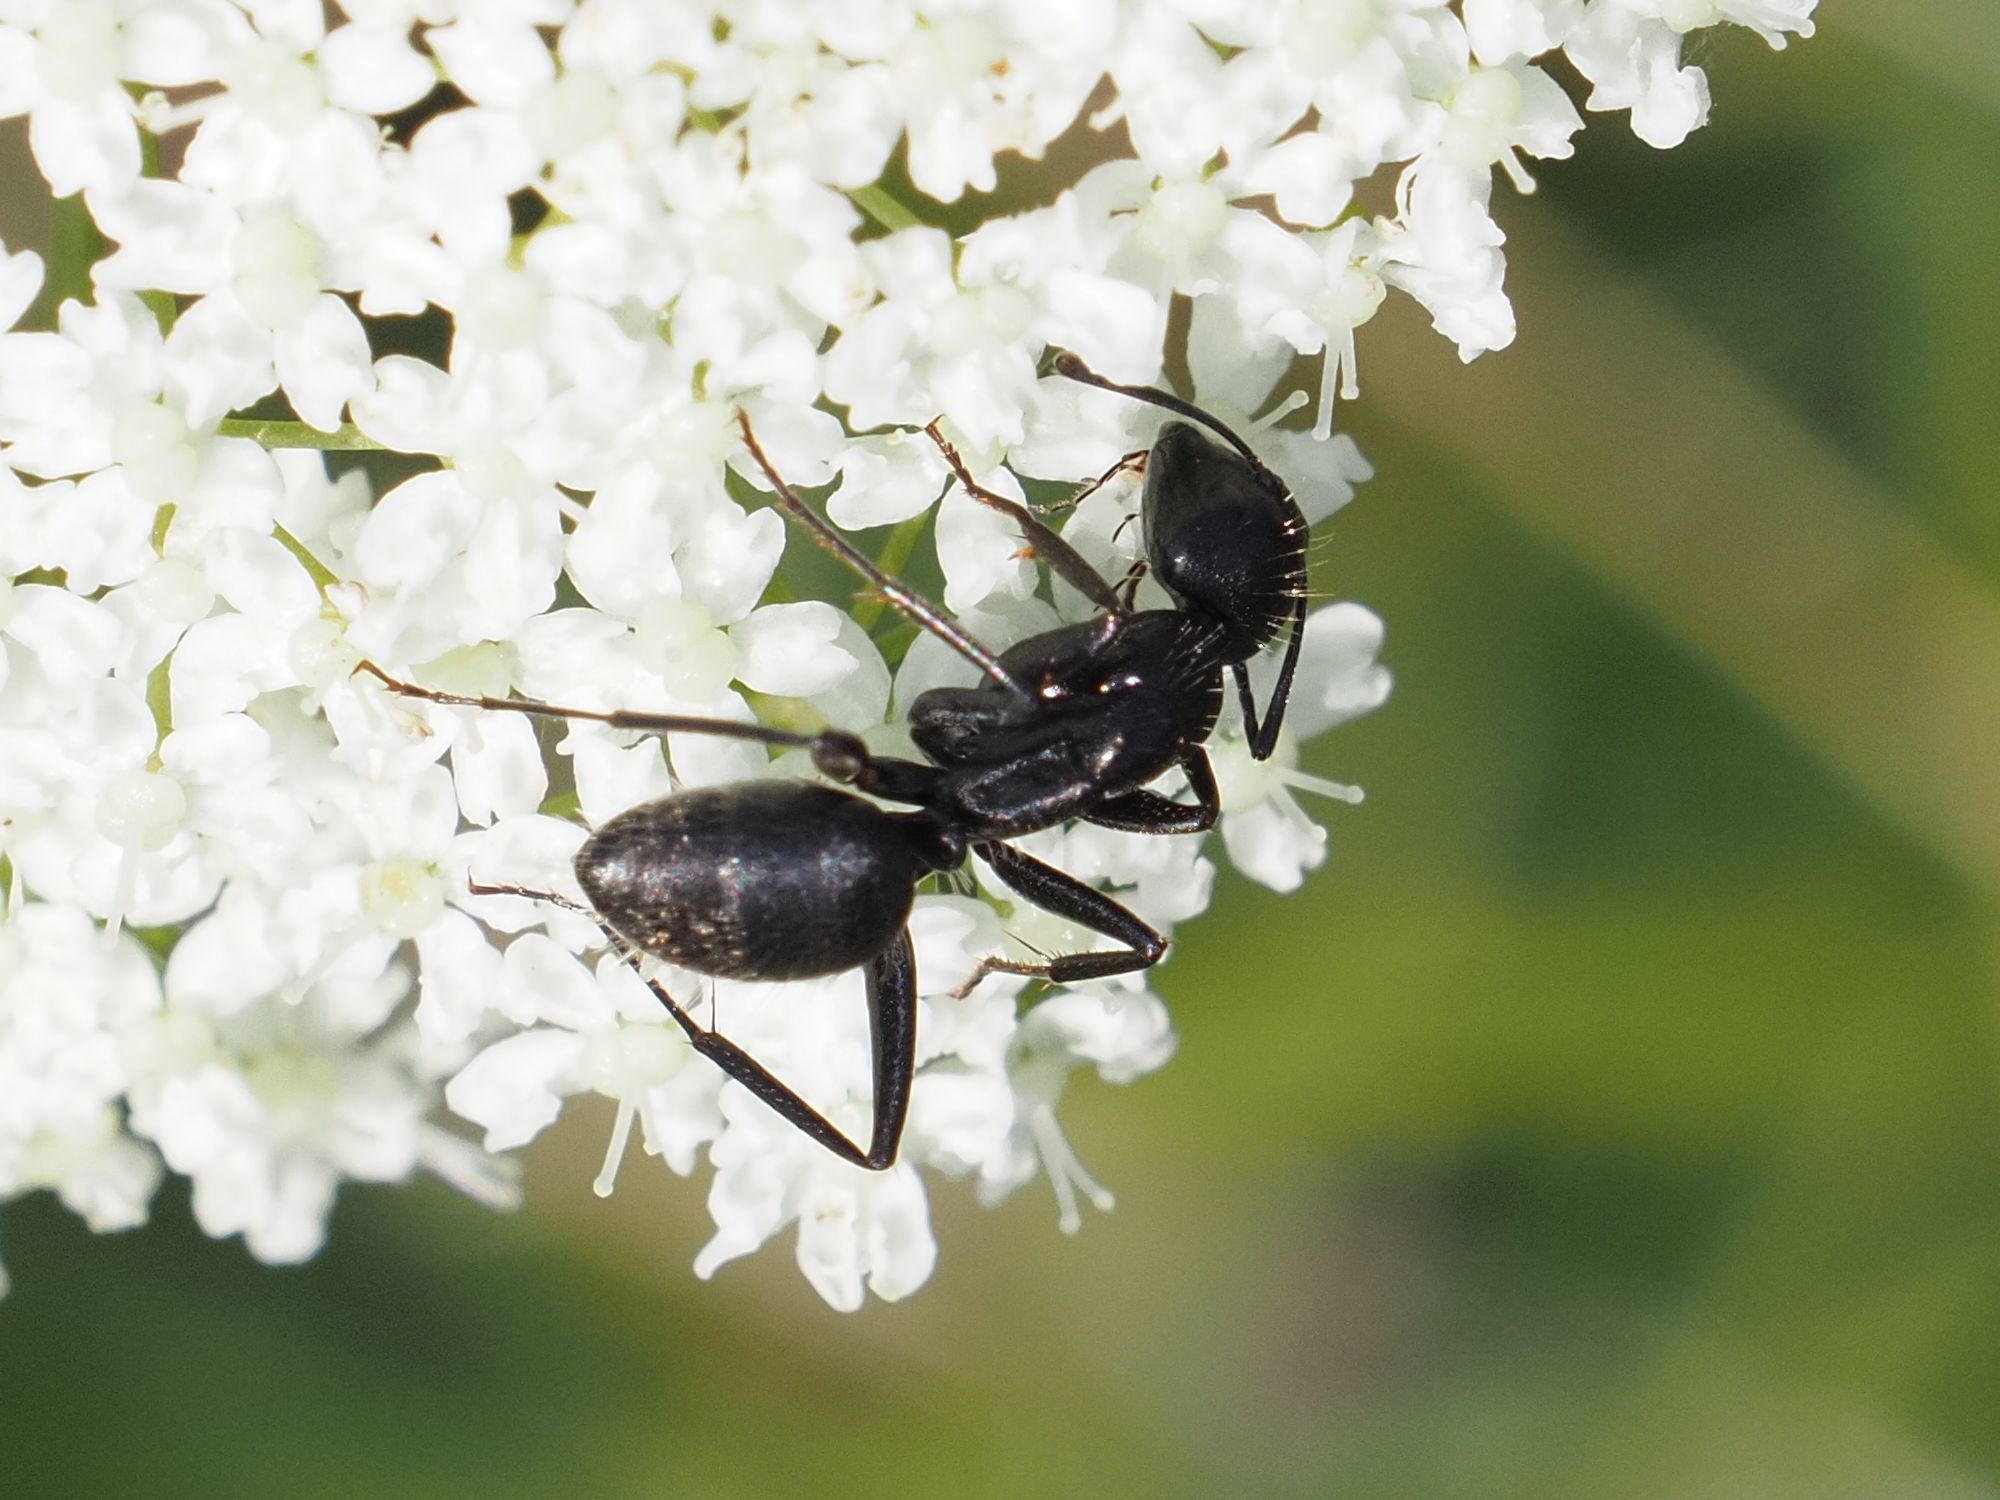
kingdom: Animalia
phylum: Arthropoda
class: Insecta
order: Hymenoptera
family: Formicidae
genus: Camponotus
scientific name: Camponotus vagus
